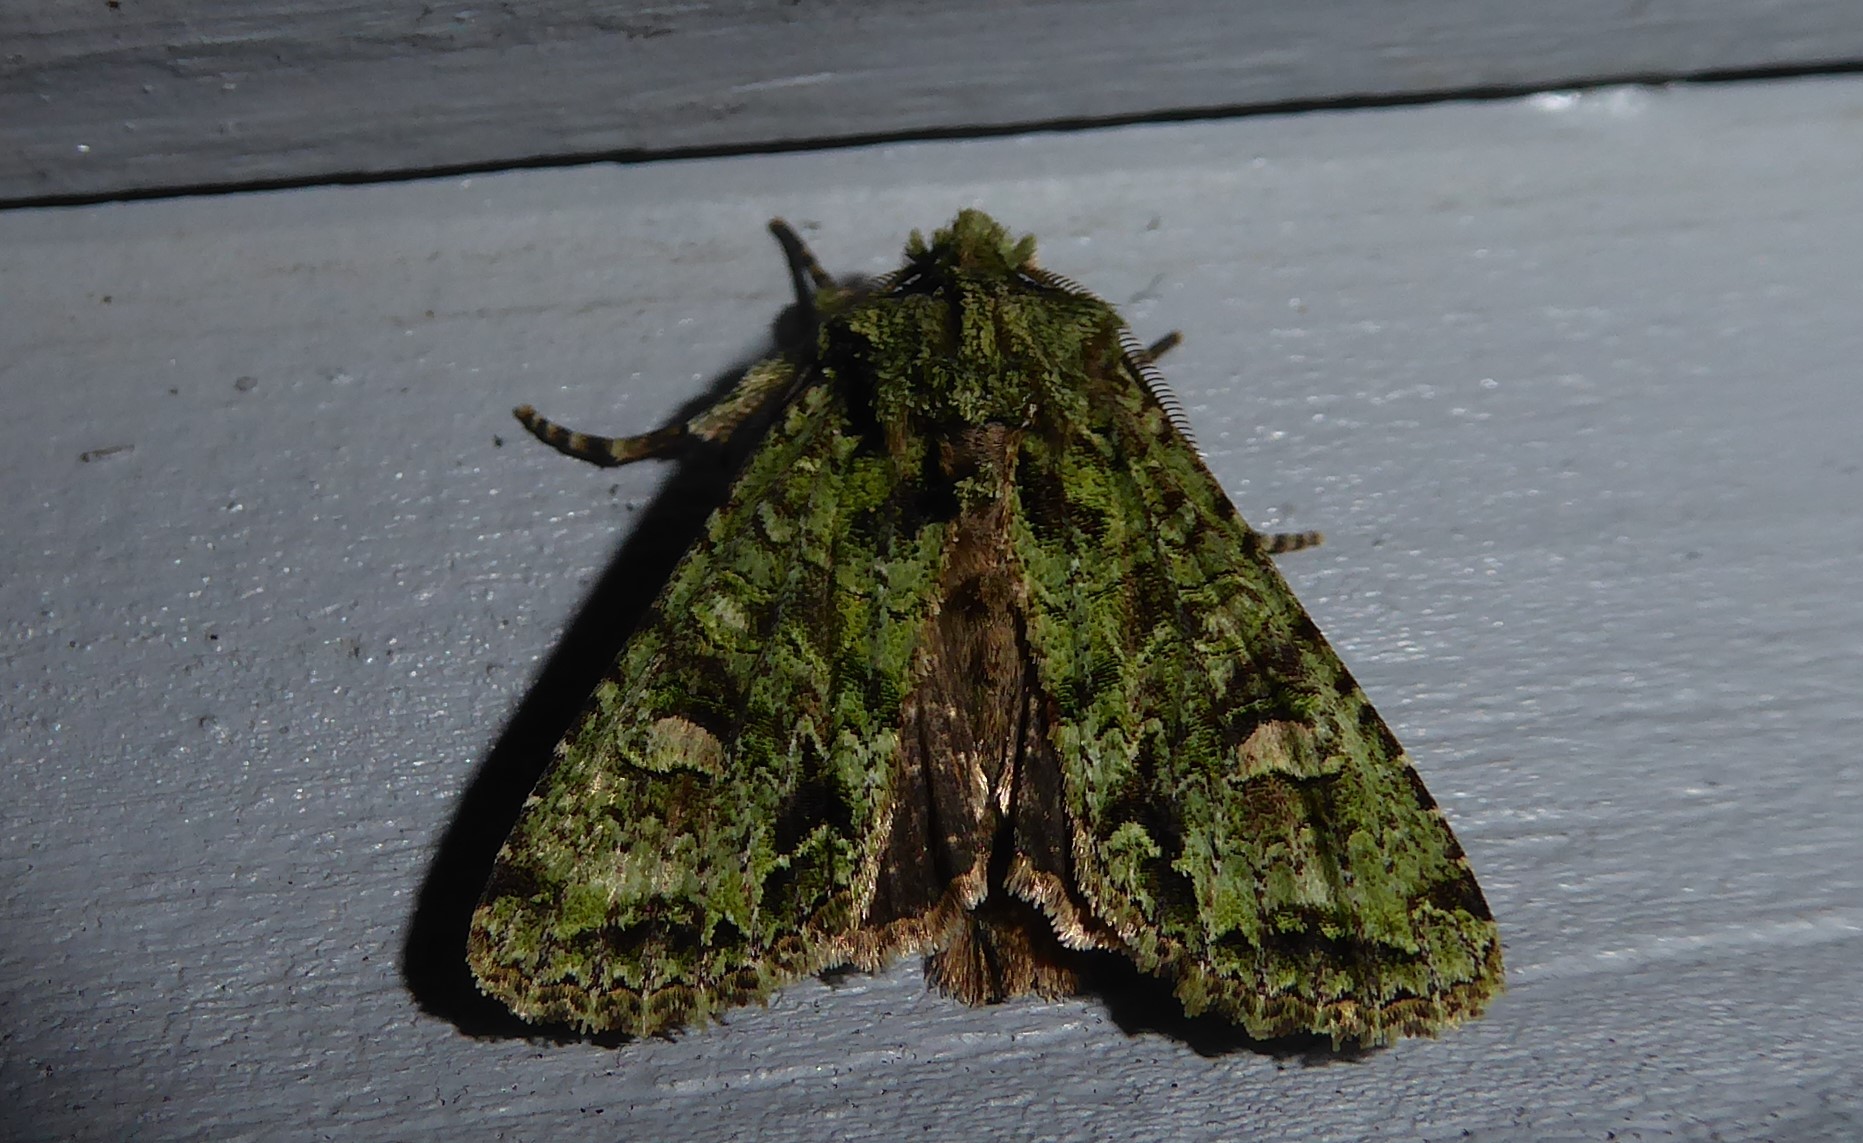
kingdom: Animalia
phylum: Arthropoda
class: Insecta
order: Lepidoptera
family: Noctuidae
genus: Ichneutica
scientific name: Ichneutica
